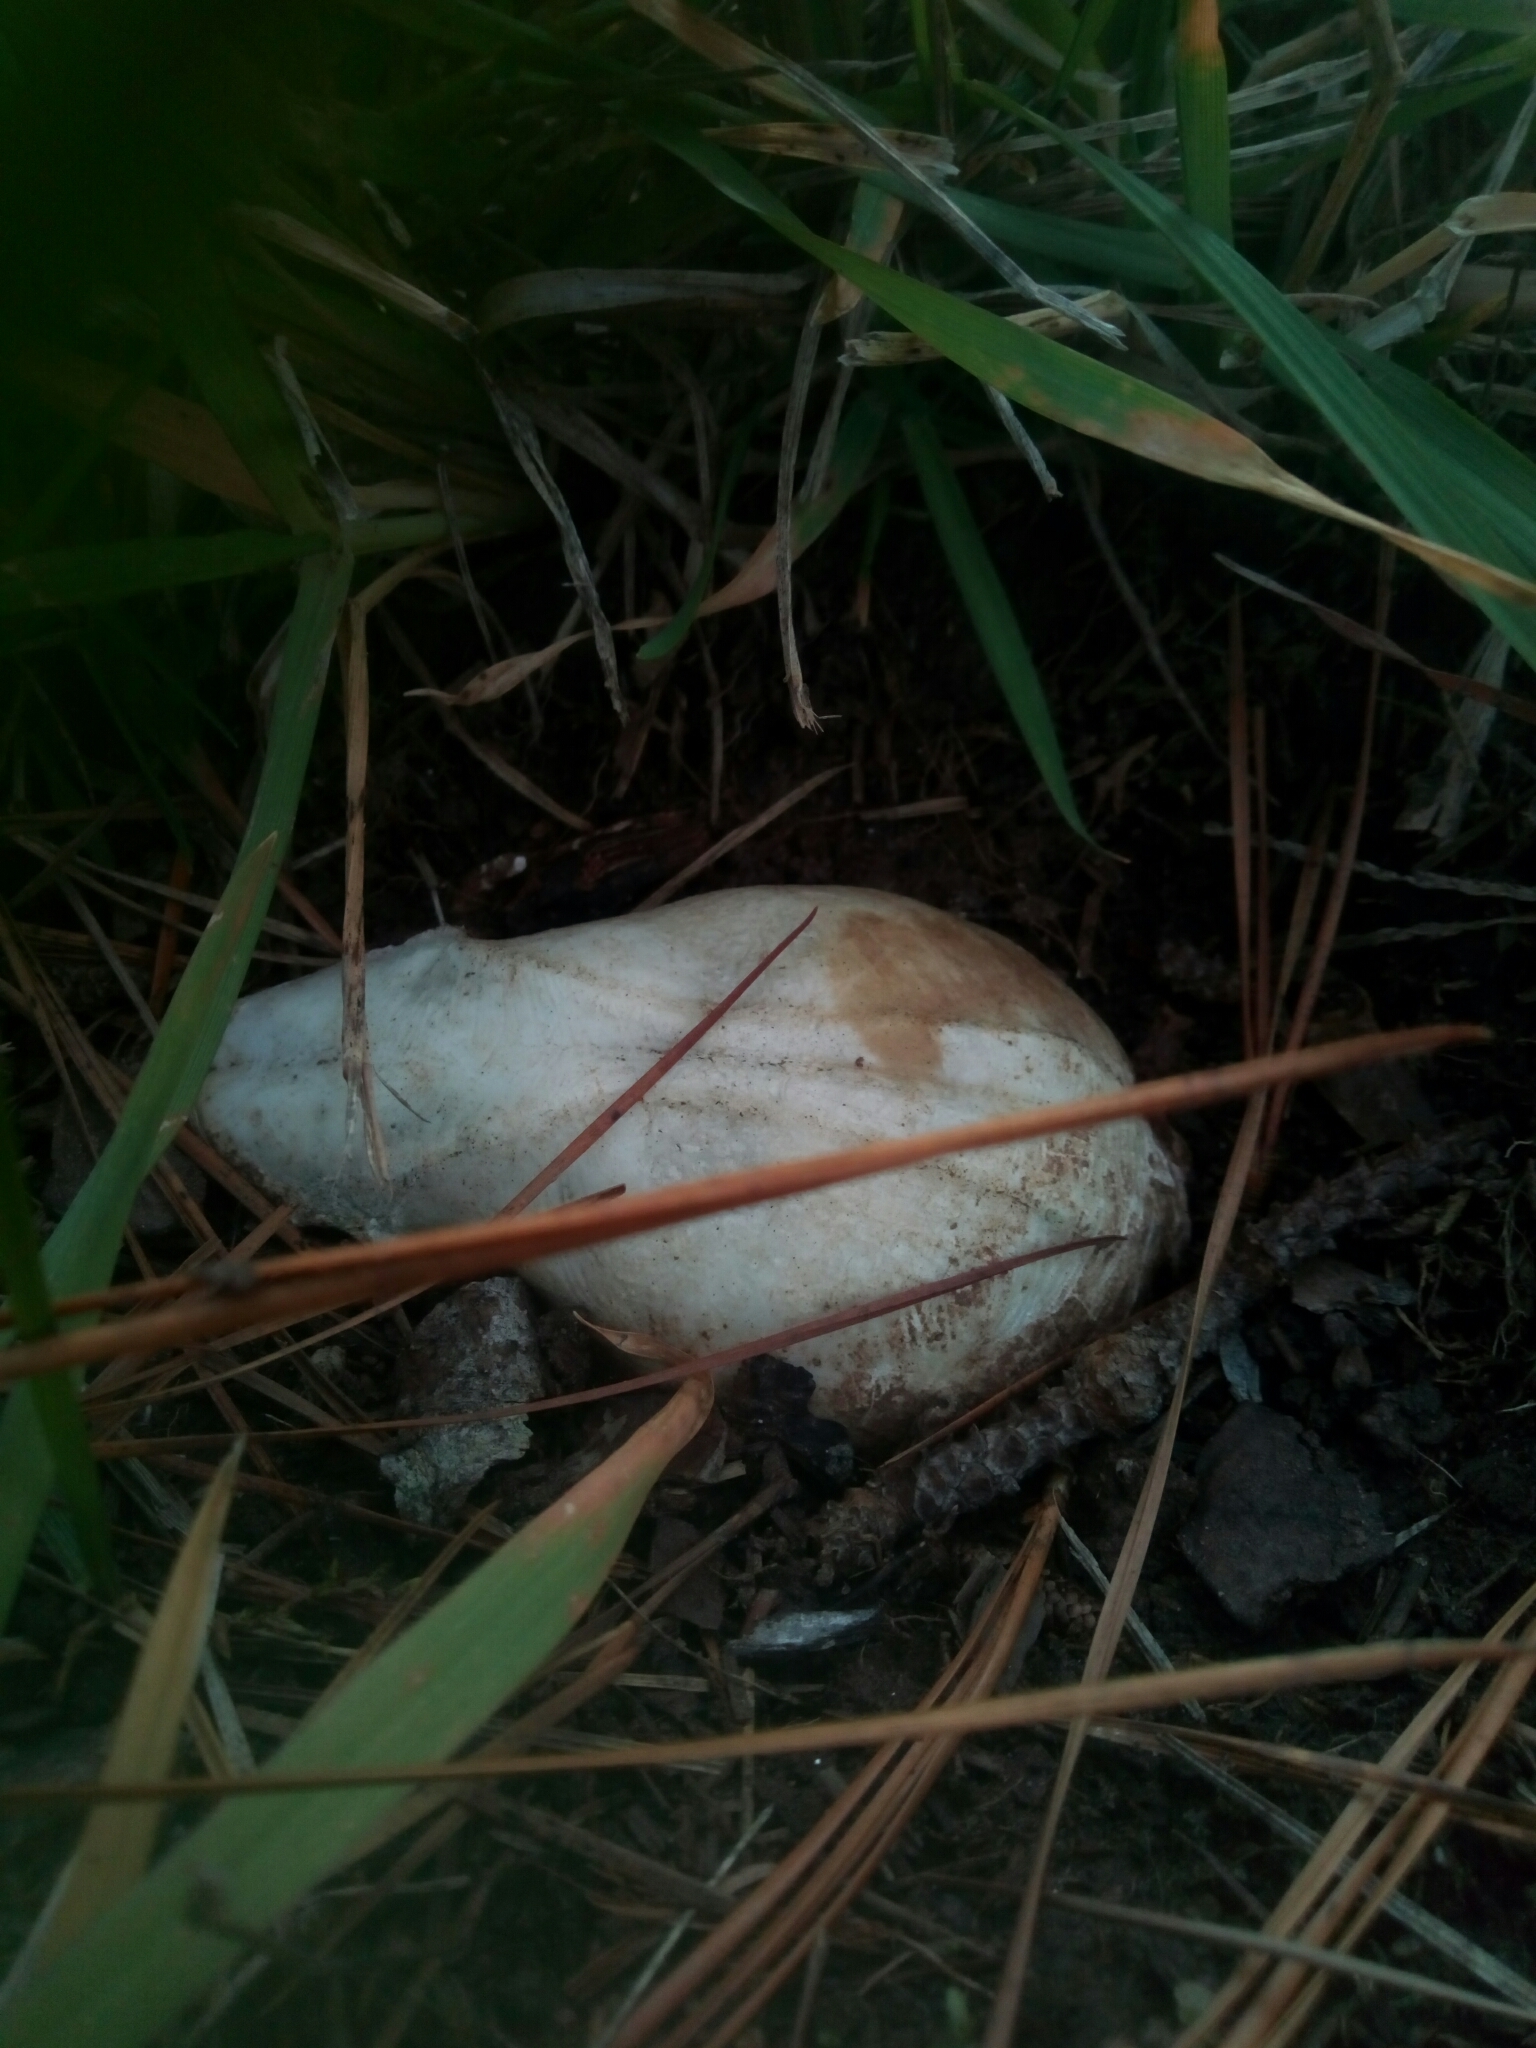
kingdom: Animalia
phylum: Chordata
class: Mammalia
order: Carnivora
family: Procyonidae
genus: Procyon
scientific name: Procyon lotor
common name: Raccoon
